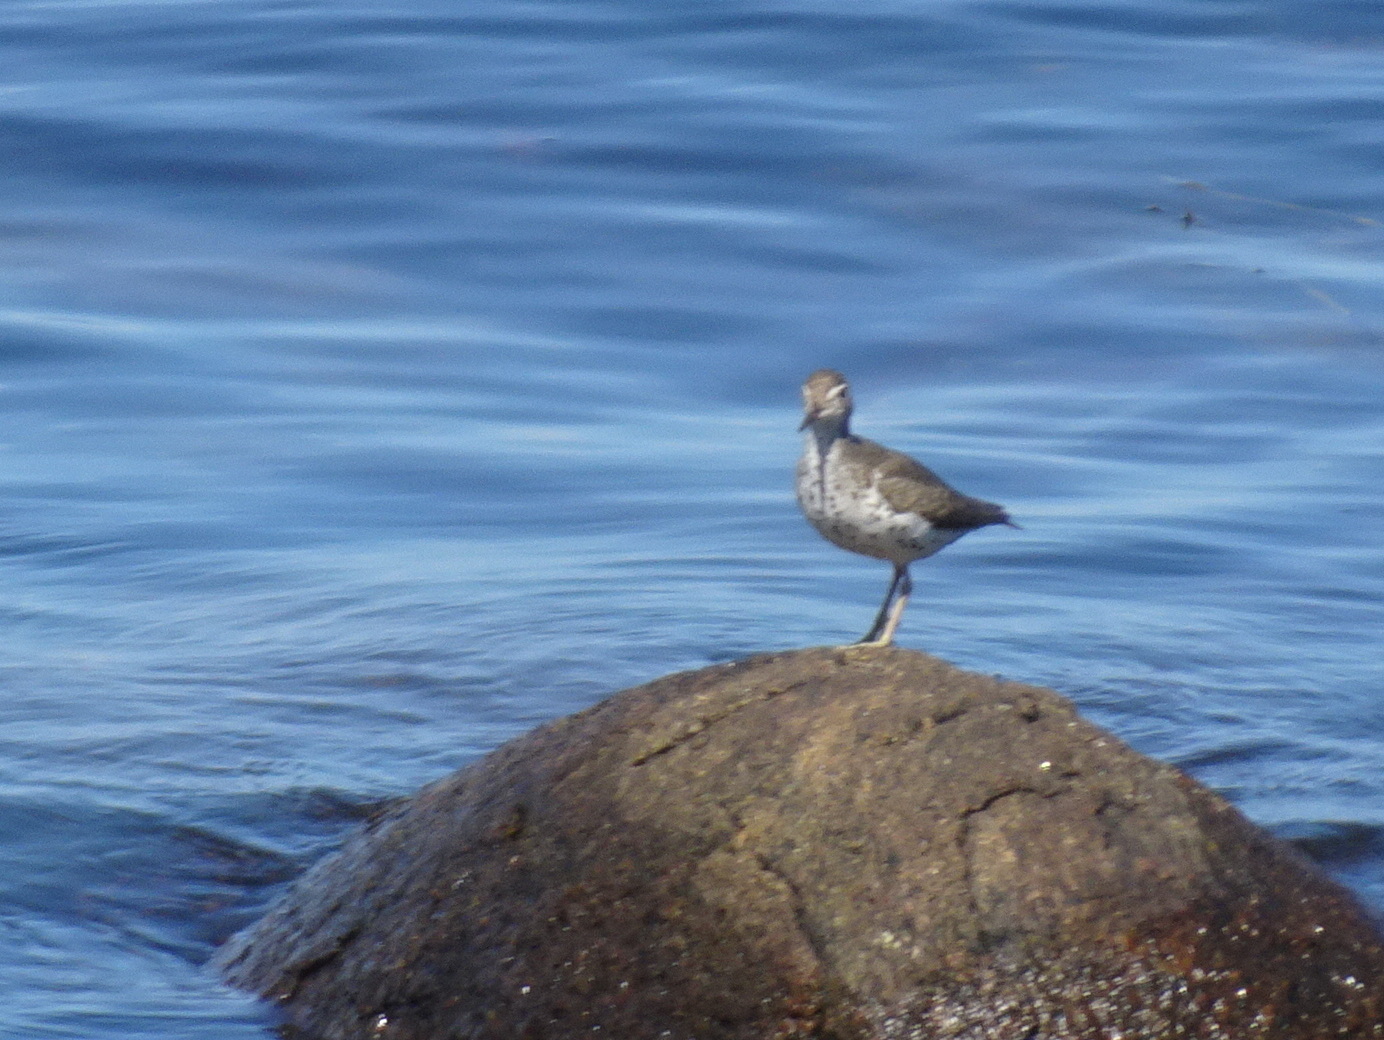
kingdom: Animalia
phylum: Chordata
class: Aves
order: Charadriiformes
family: Scolopacidae
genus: Actitis
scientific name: Actitis macularius
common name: Spotted sandpiper
